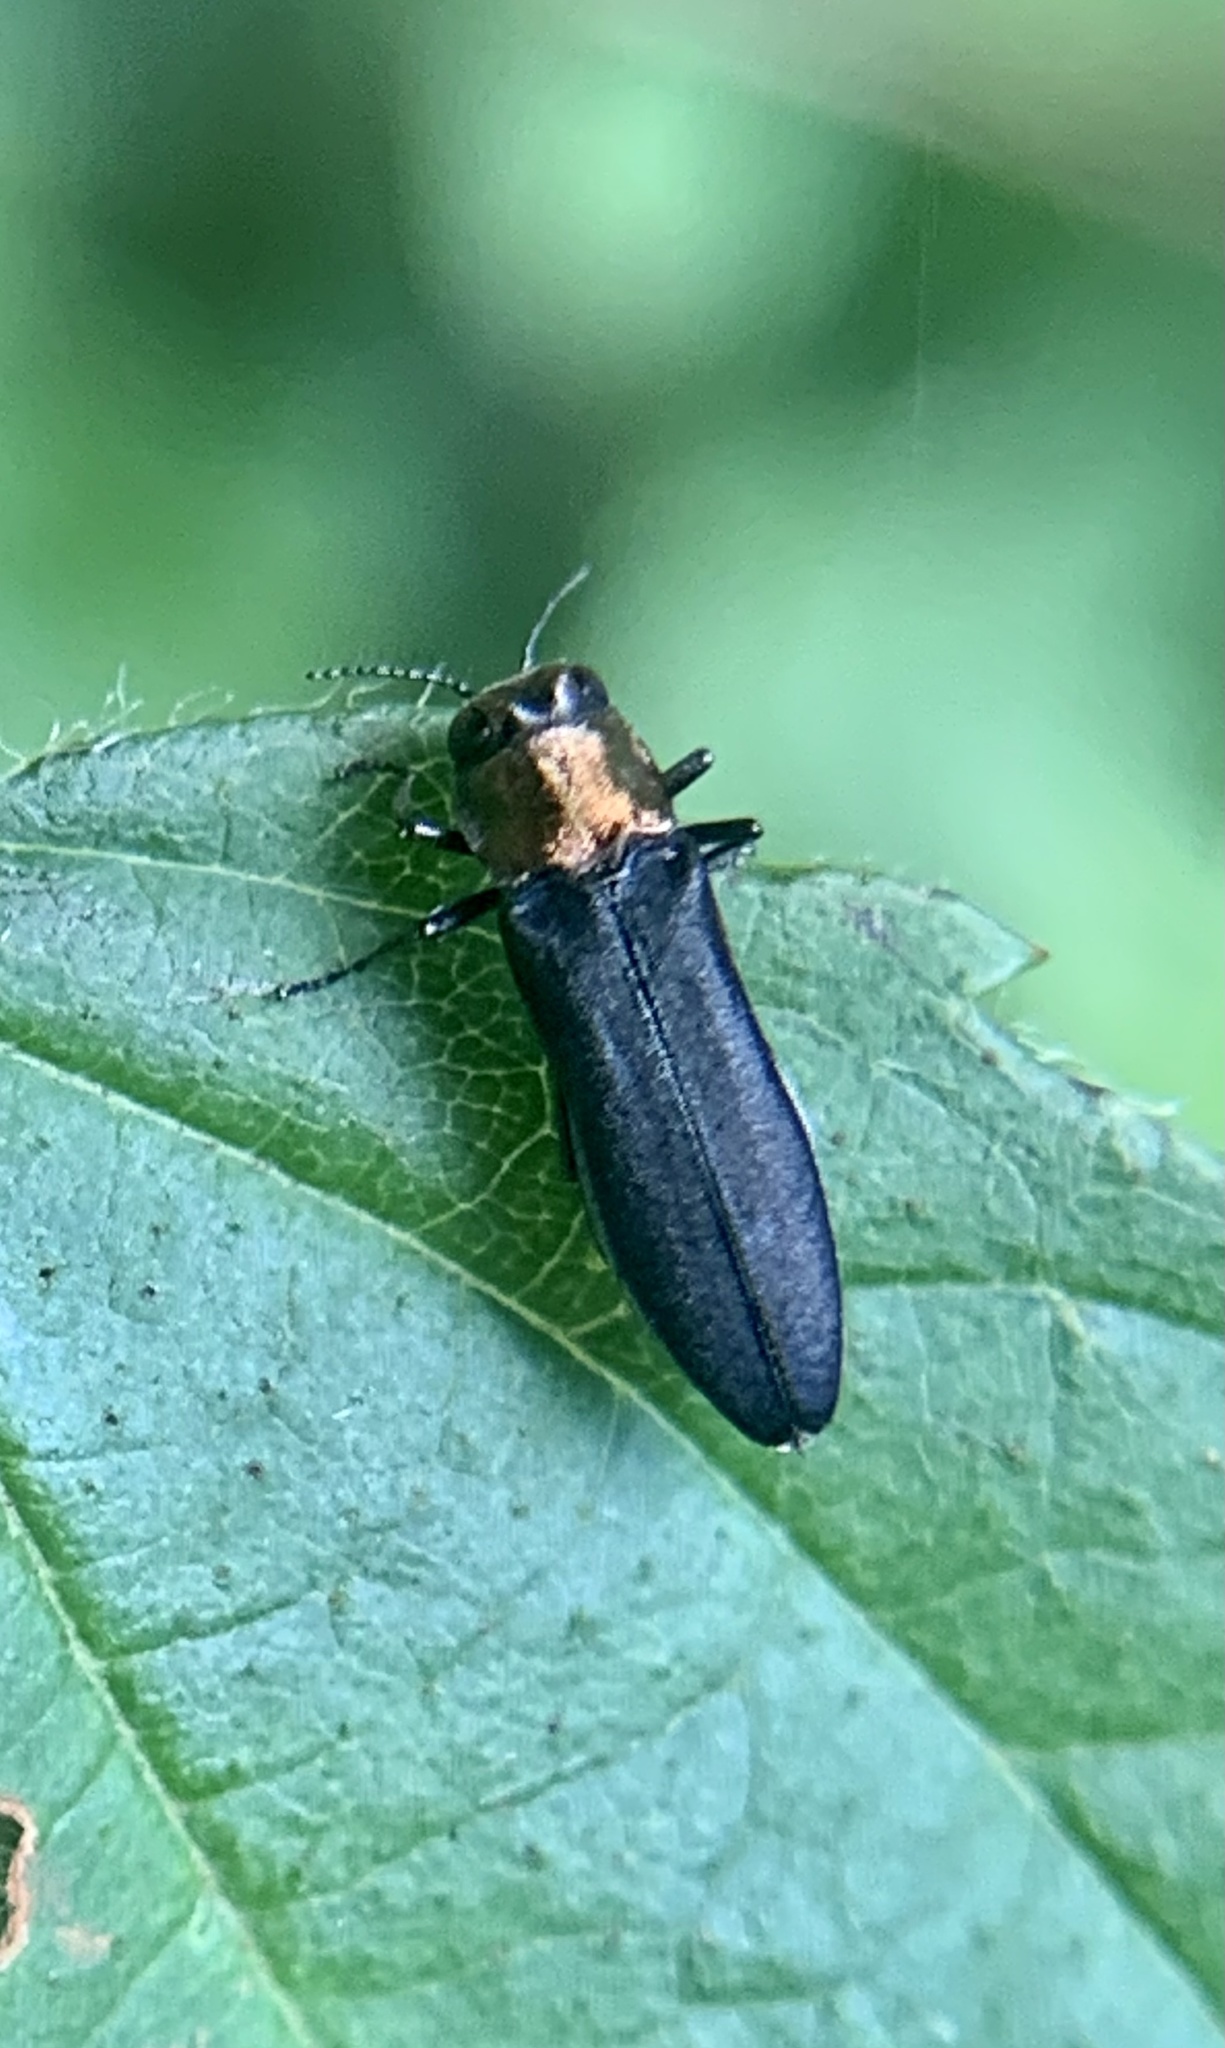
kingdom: Animalia
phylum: Arthropoda
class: Insecta
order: Coleoptera
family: Buprestidae
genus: Agrilus
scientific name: Agrilus ruficollis
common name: Red-necked cane borer beetle
